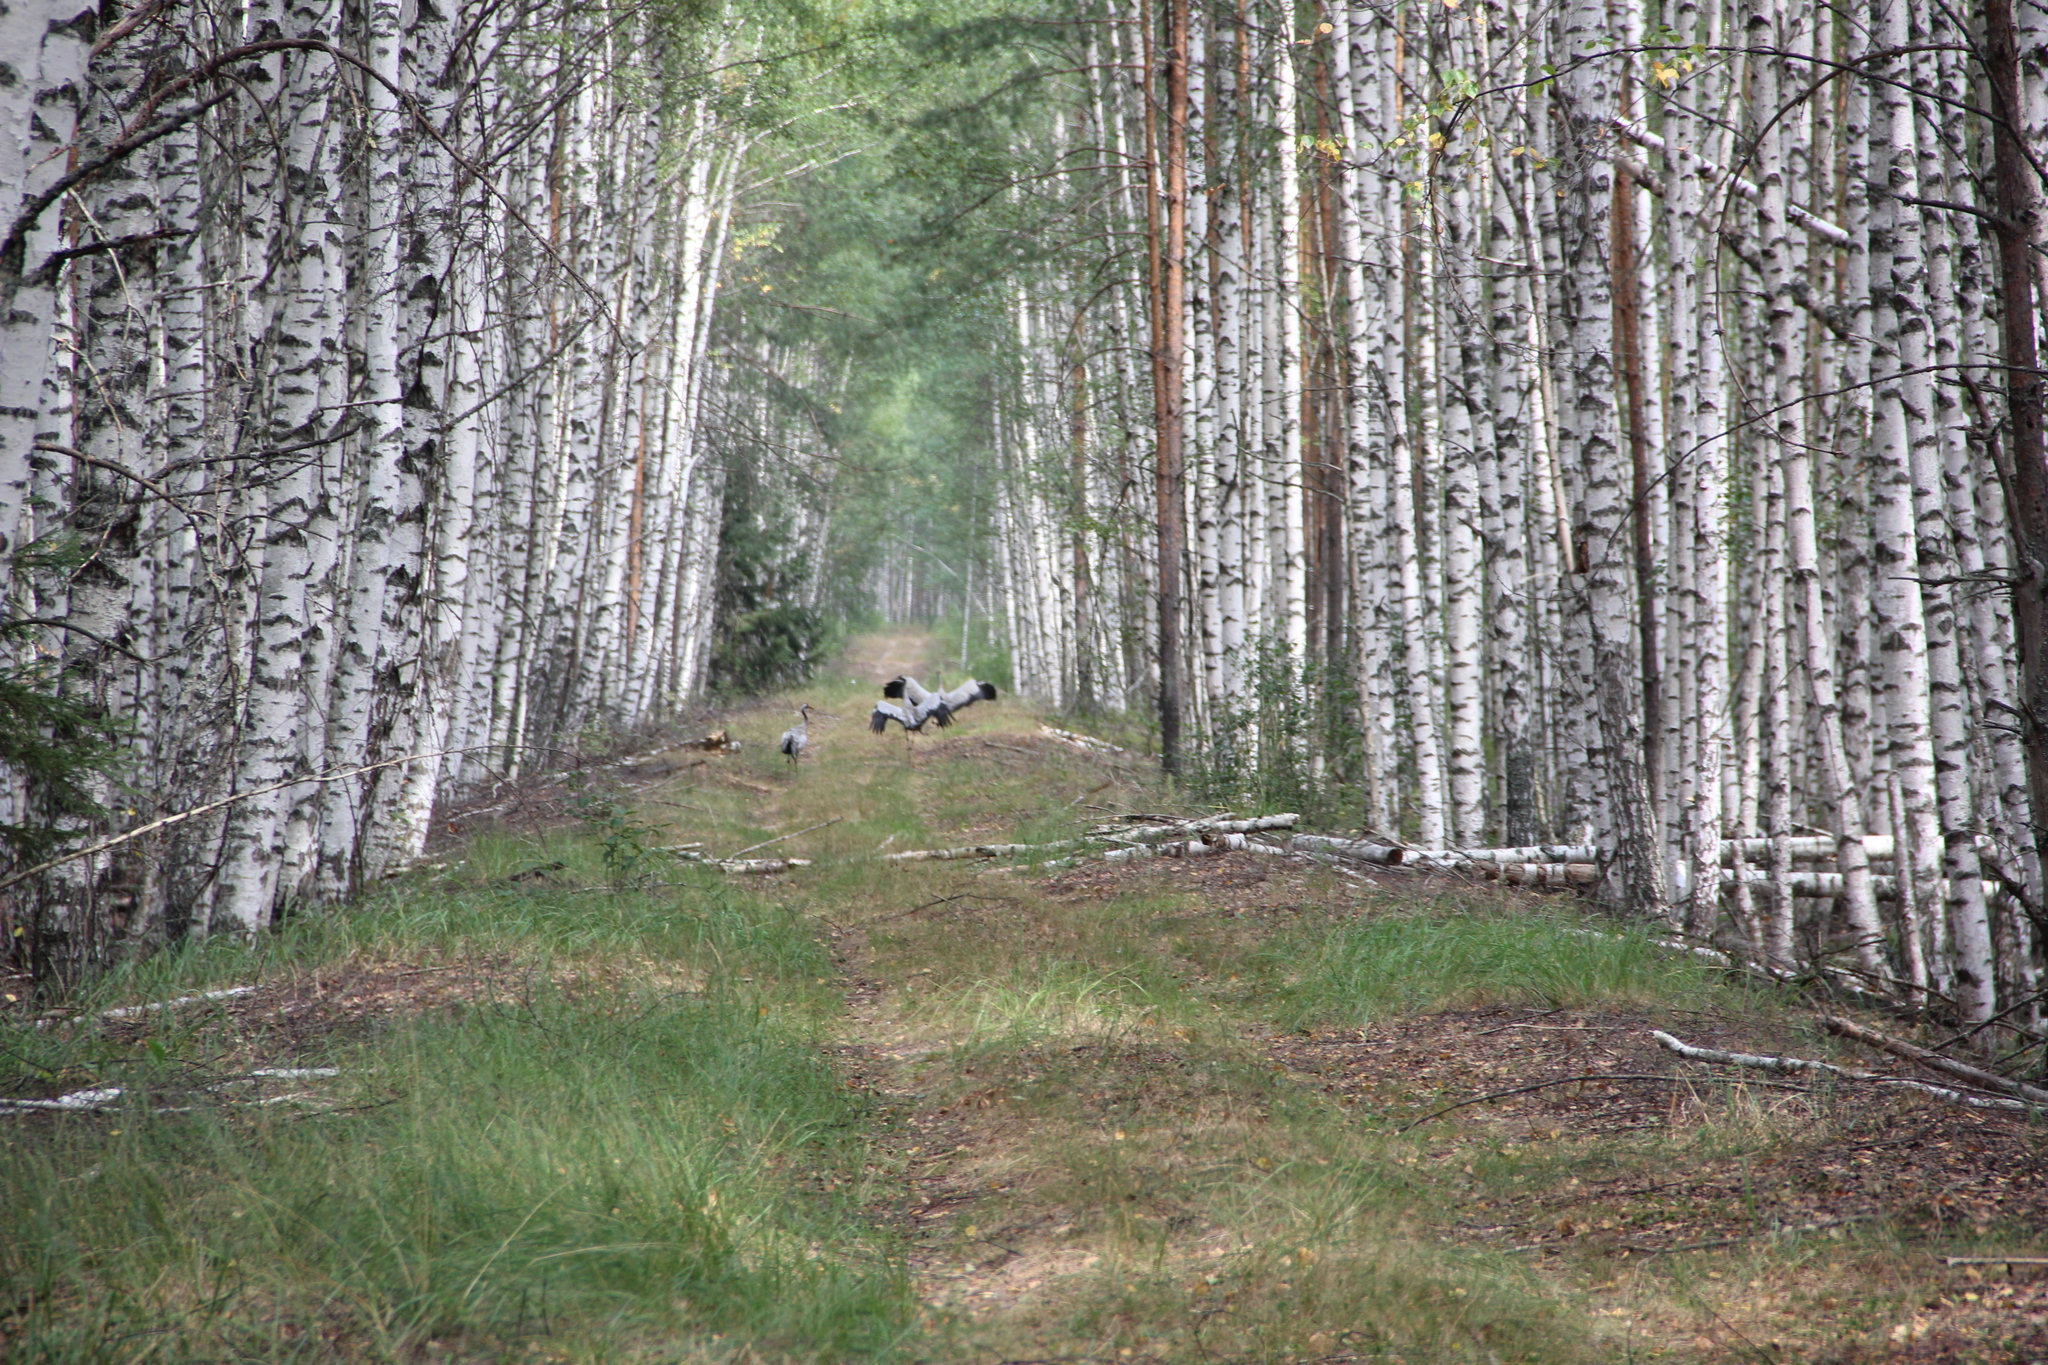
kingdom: Animalia
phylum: Chordata
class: Aves
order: Gruiformes
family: Gruidae
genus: Grus
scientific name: Grus grus
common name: Common crane
